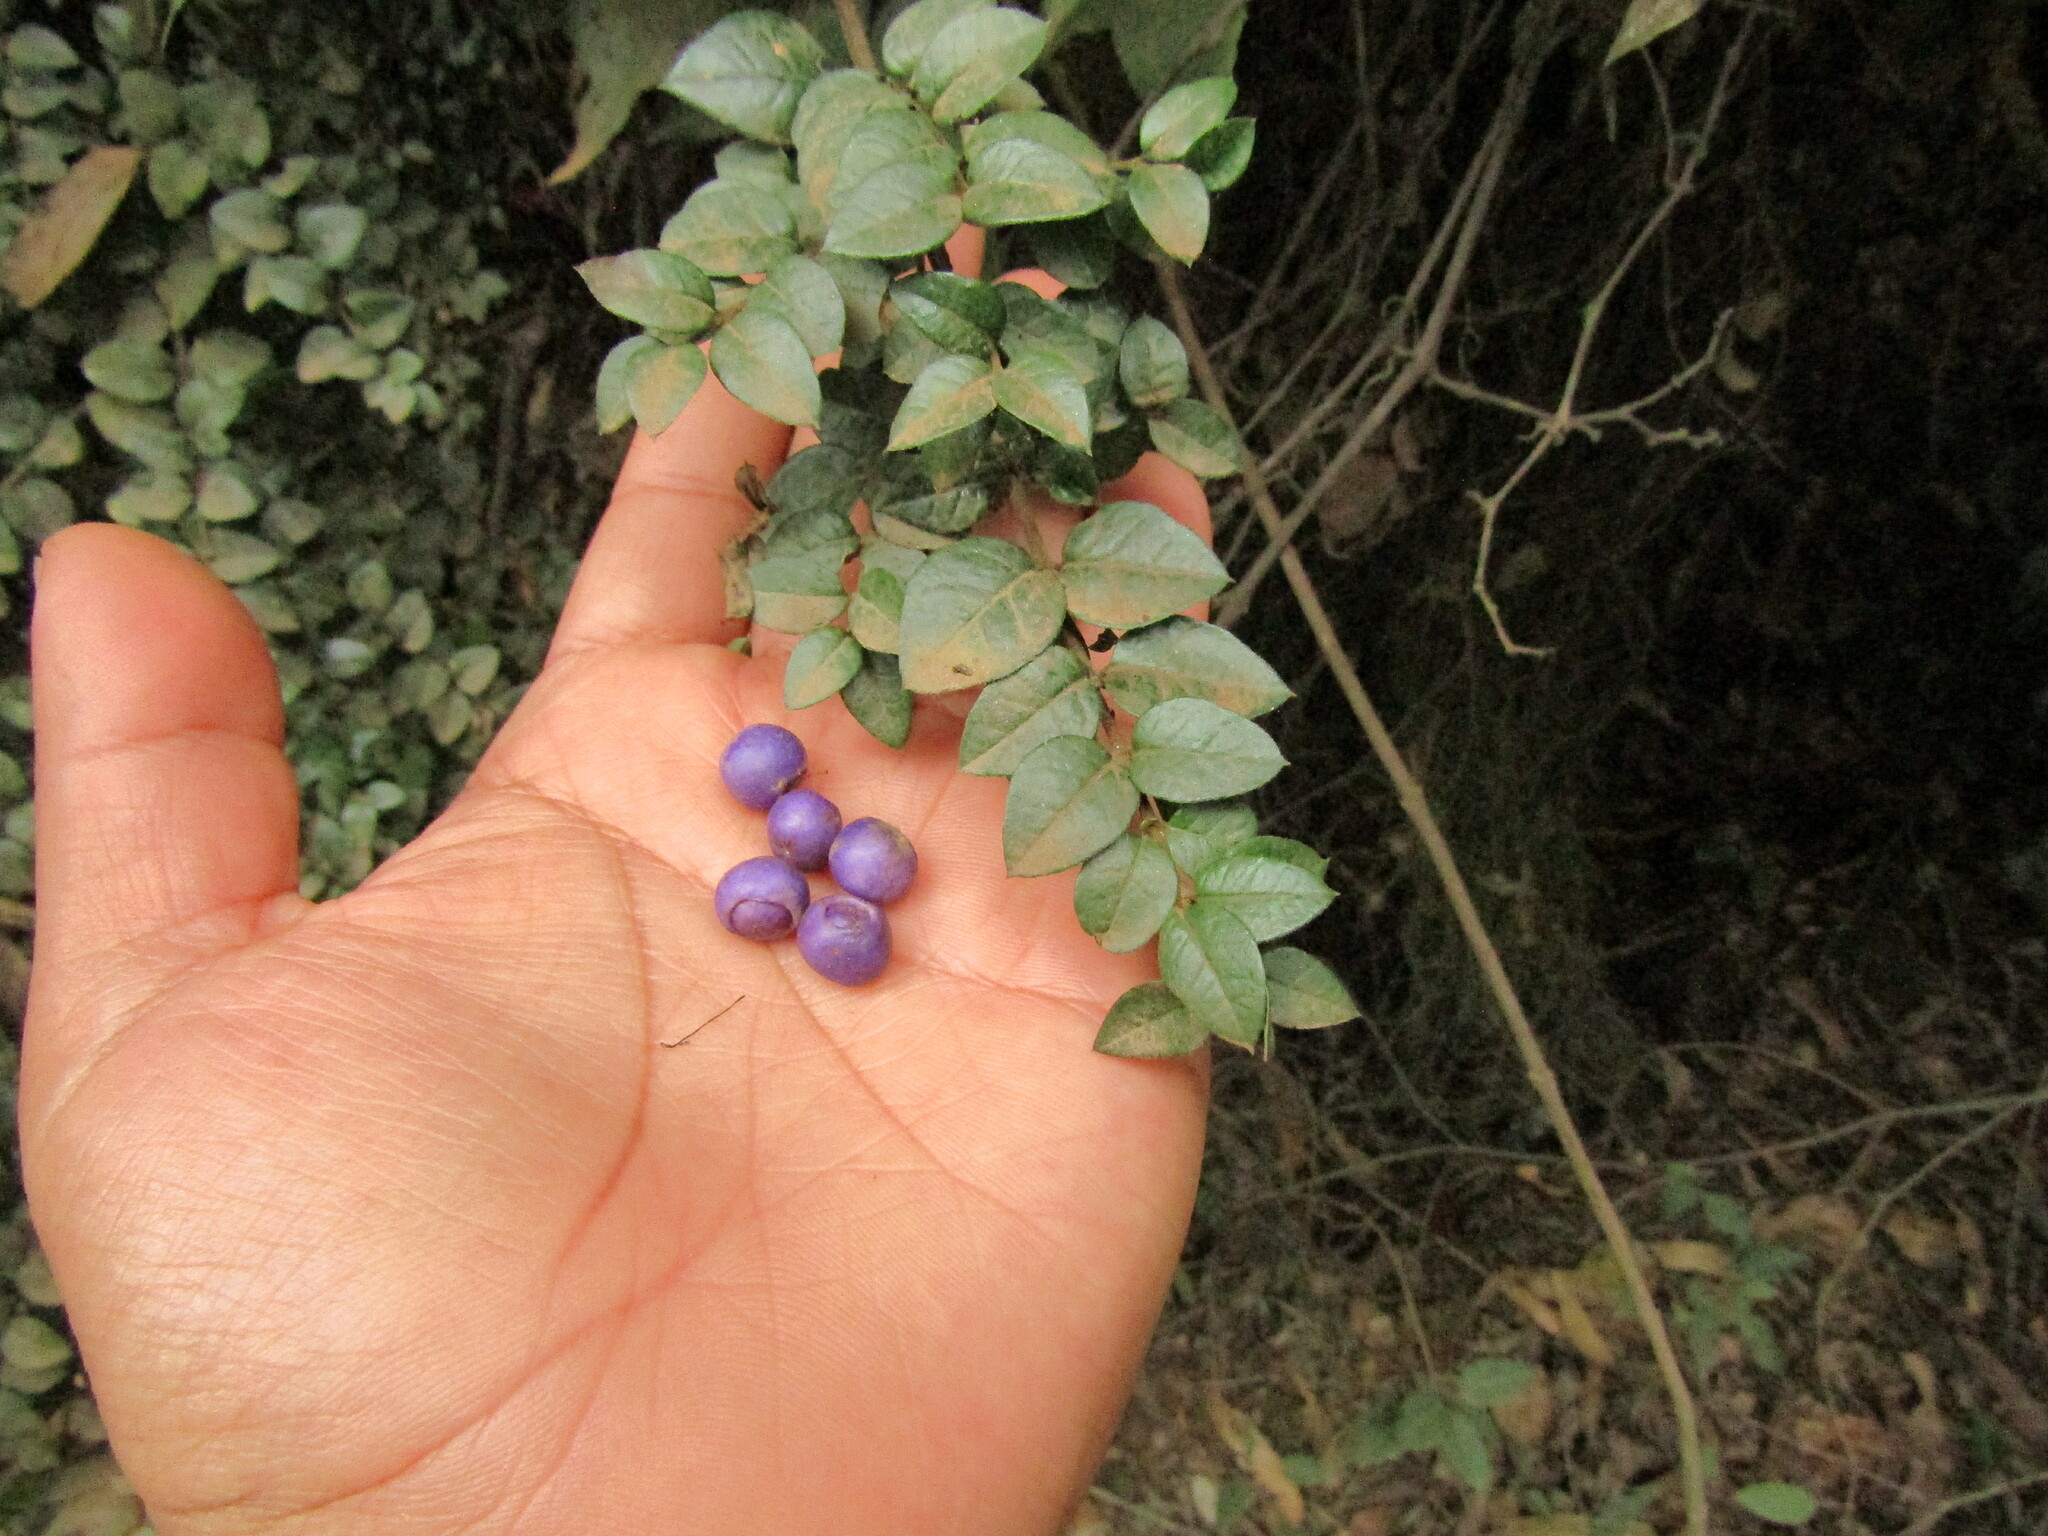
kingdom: Plantae
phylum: Tracheophyta
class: Magnoliopsida
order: Lamiales
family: Verbenaceae
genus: Rhaphithamnus
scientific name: Rhaphithamnus spinosus
